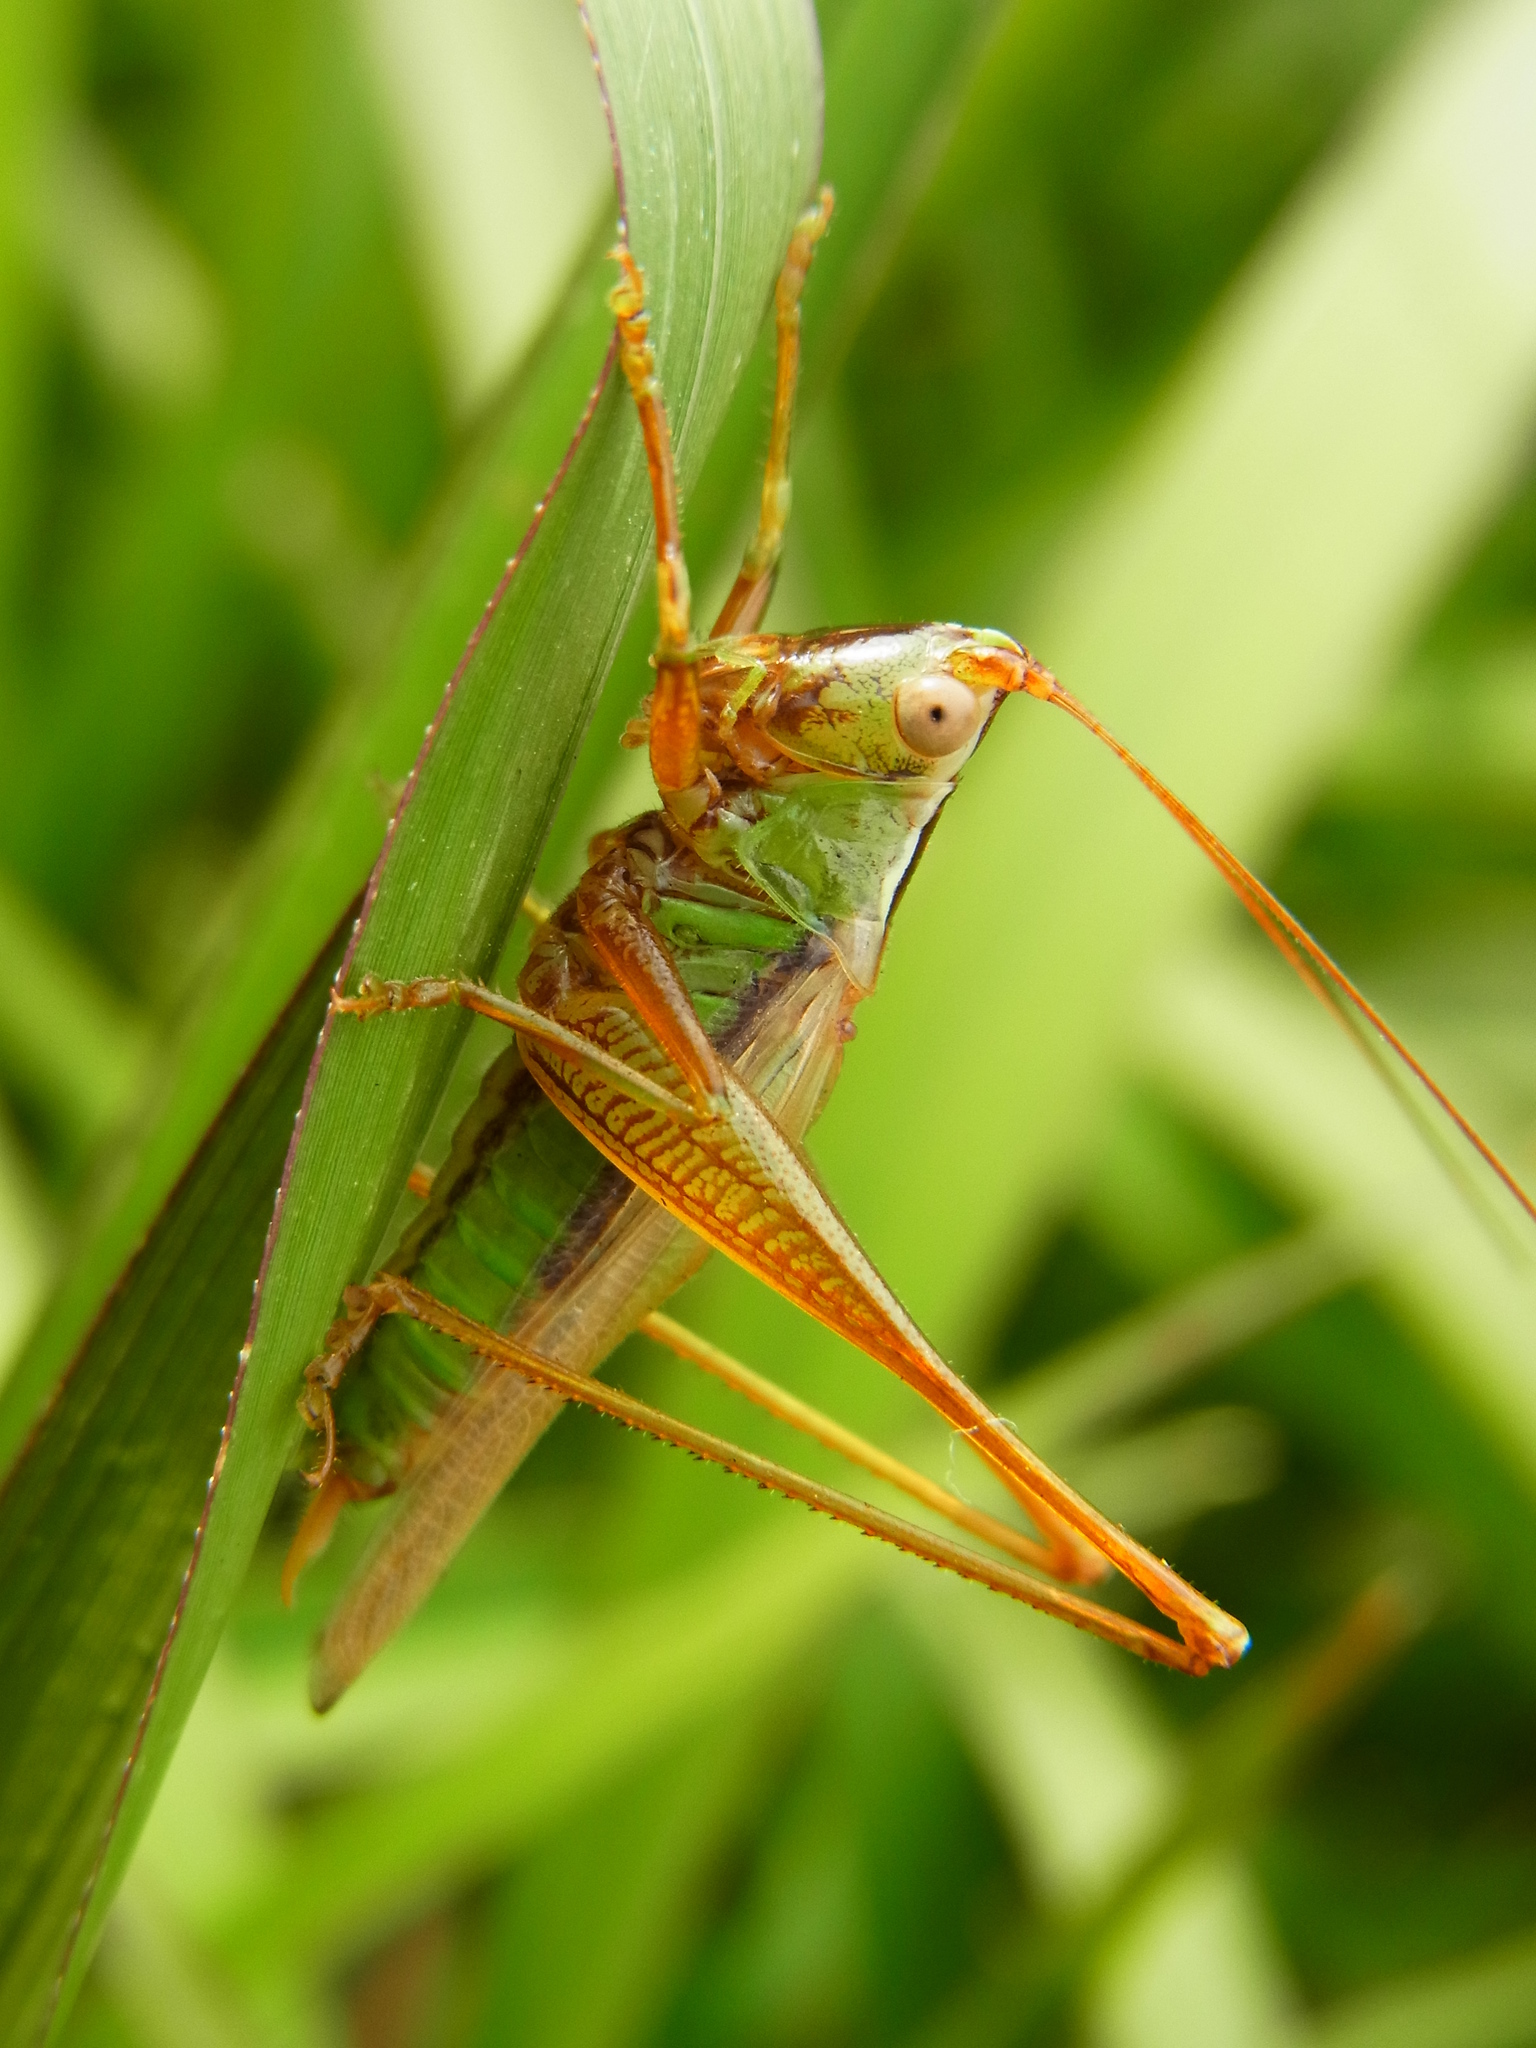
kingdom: Animalia
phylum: Arthropoda
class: Insecta
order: Orthoptera
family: Tettigoniidae
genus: Conocephalus
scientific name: Conocephalus exemptus
